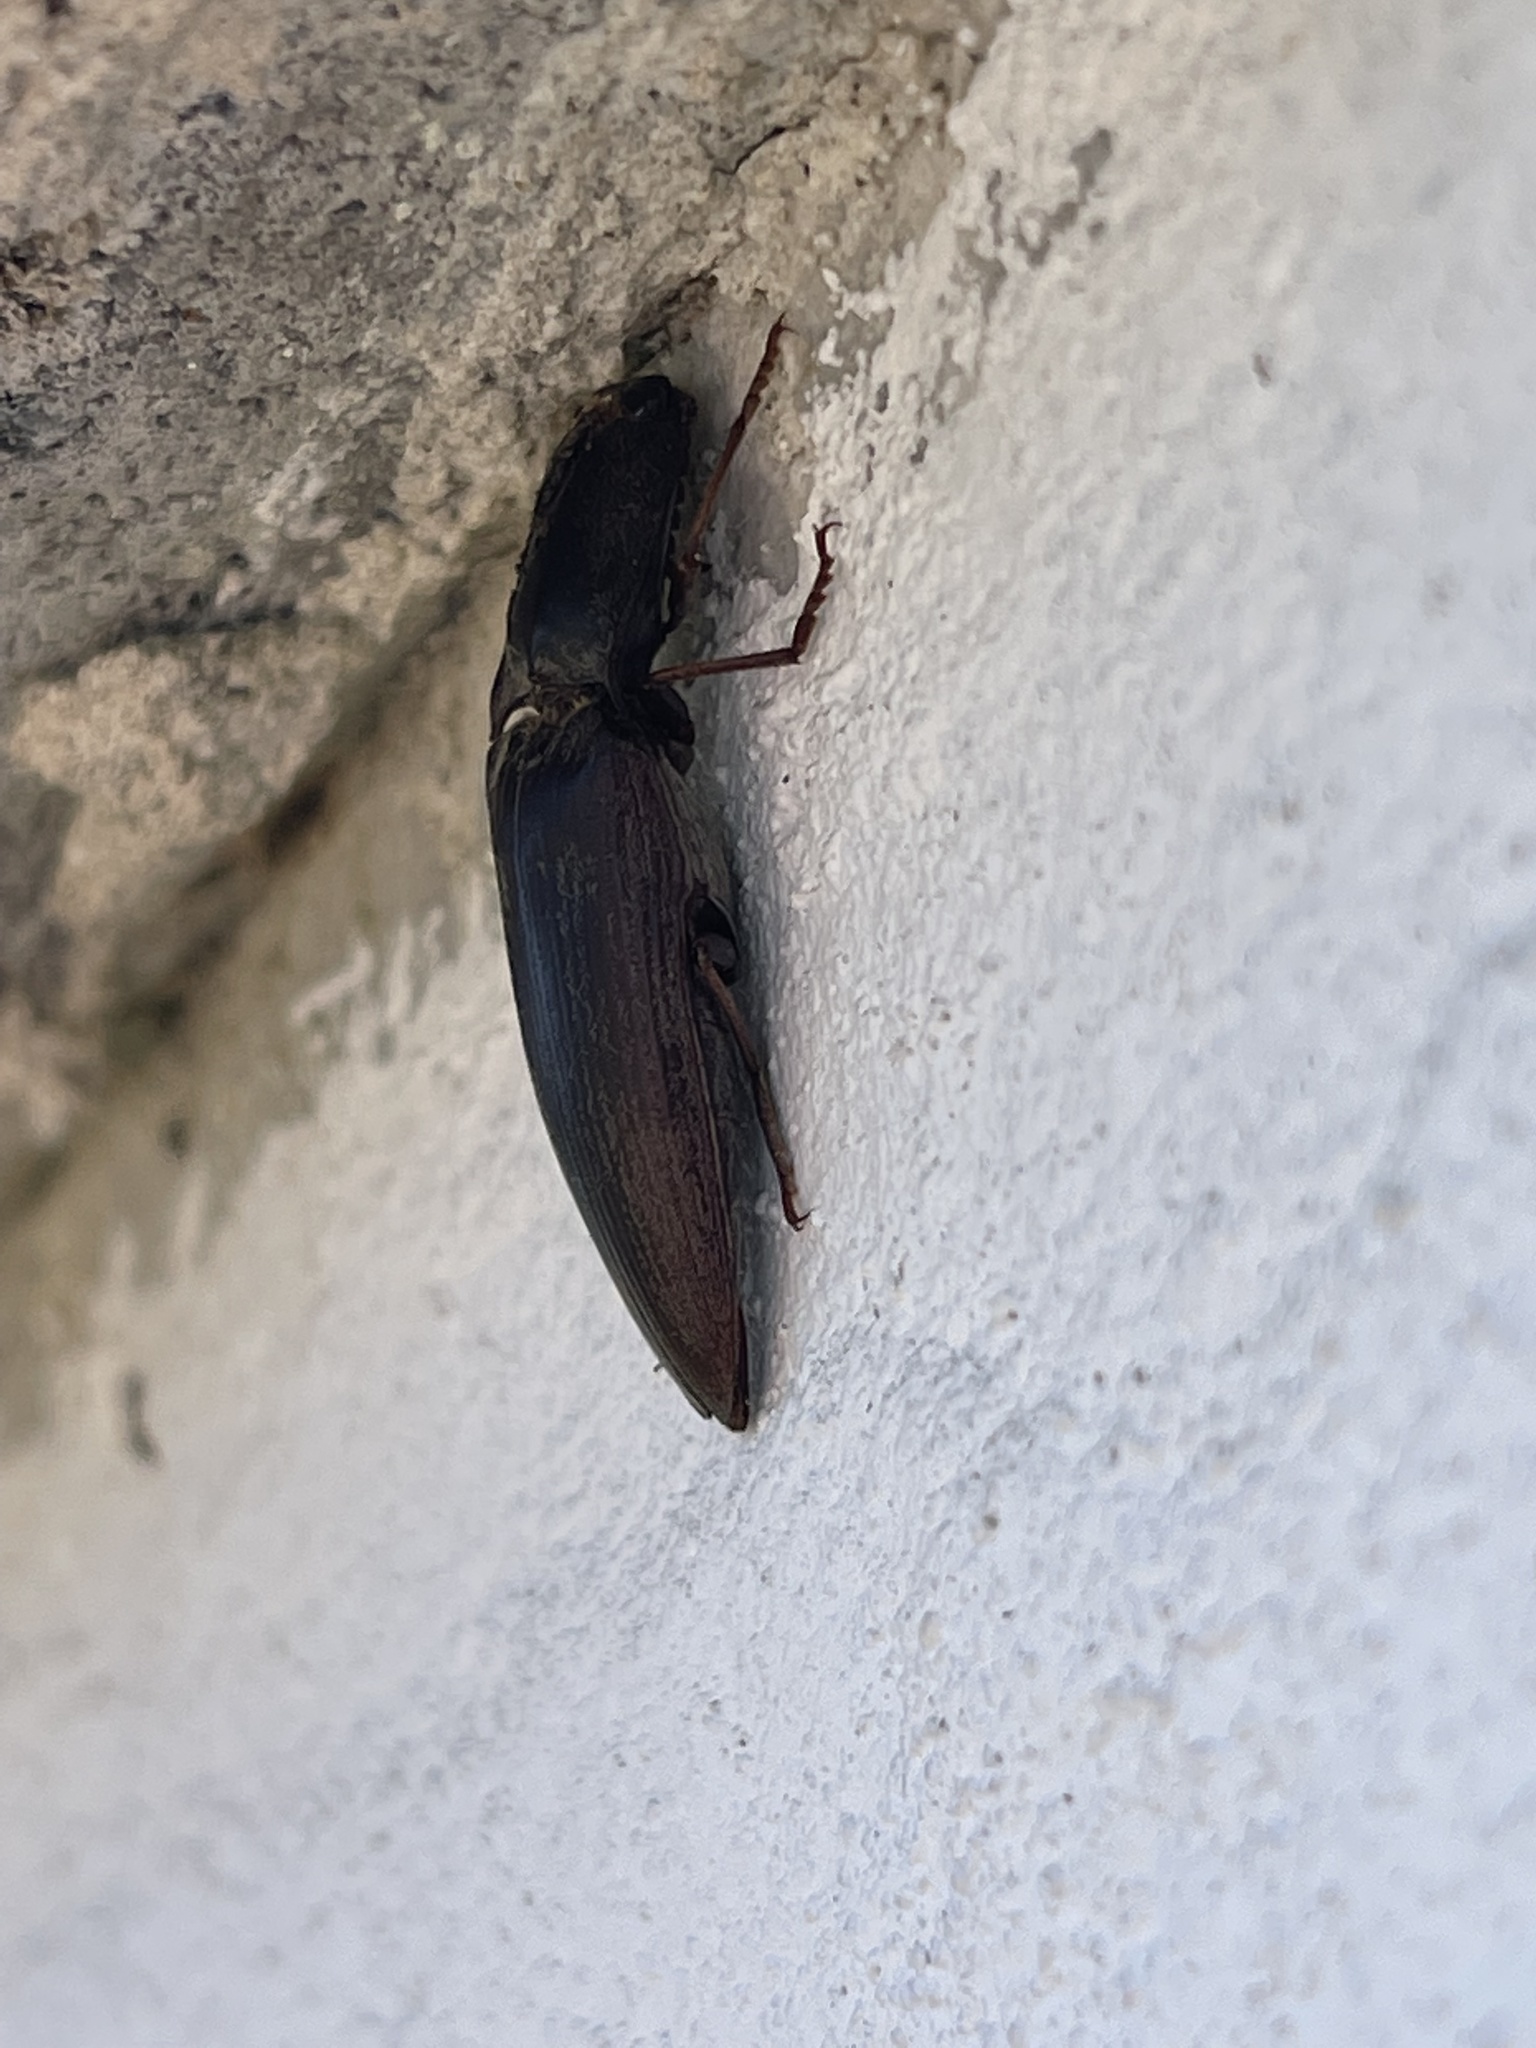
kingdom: Animalia
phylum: Arthropoda
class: Insecta
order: Coleoptera
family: Elateridae
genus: Lanelater
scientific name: Lanelater sallei
